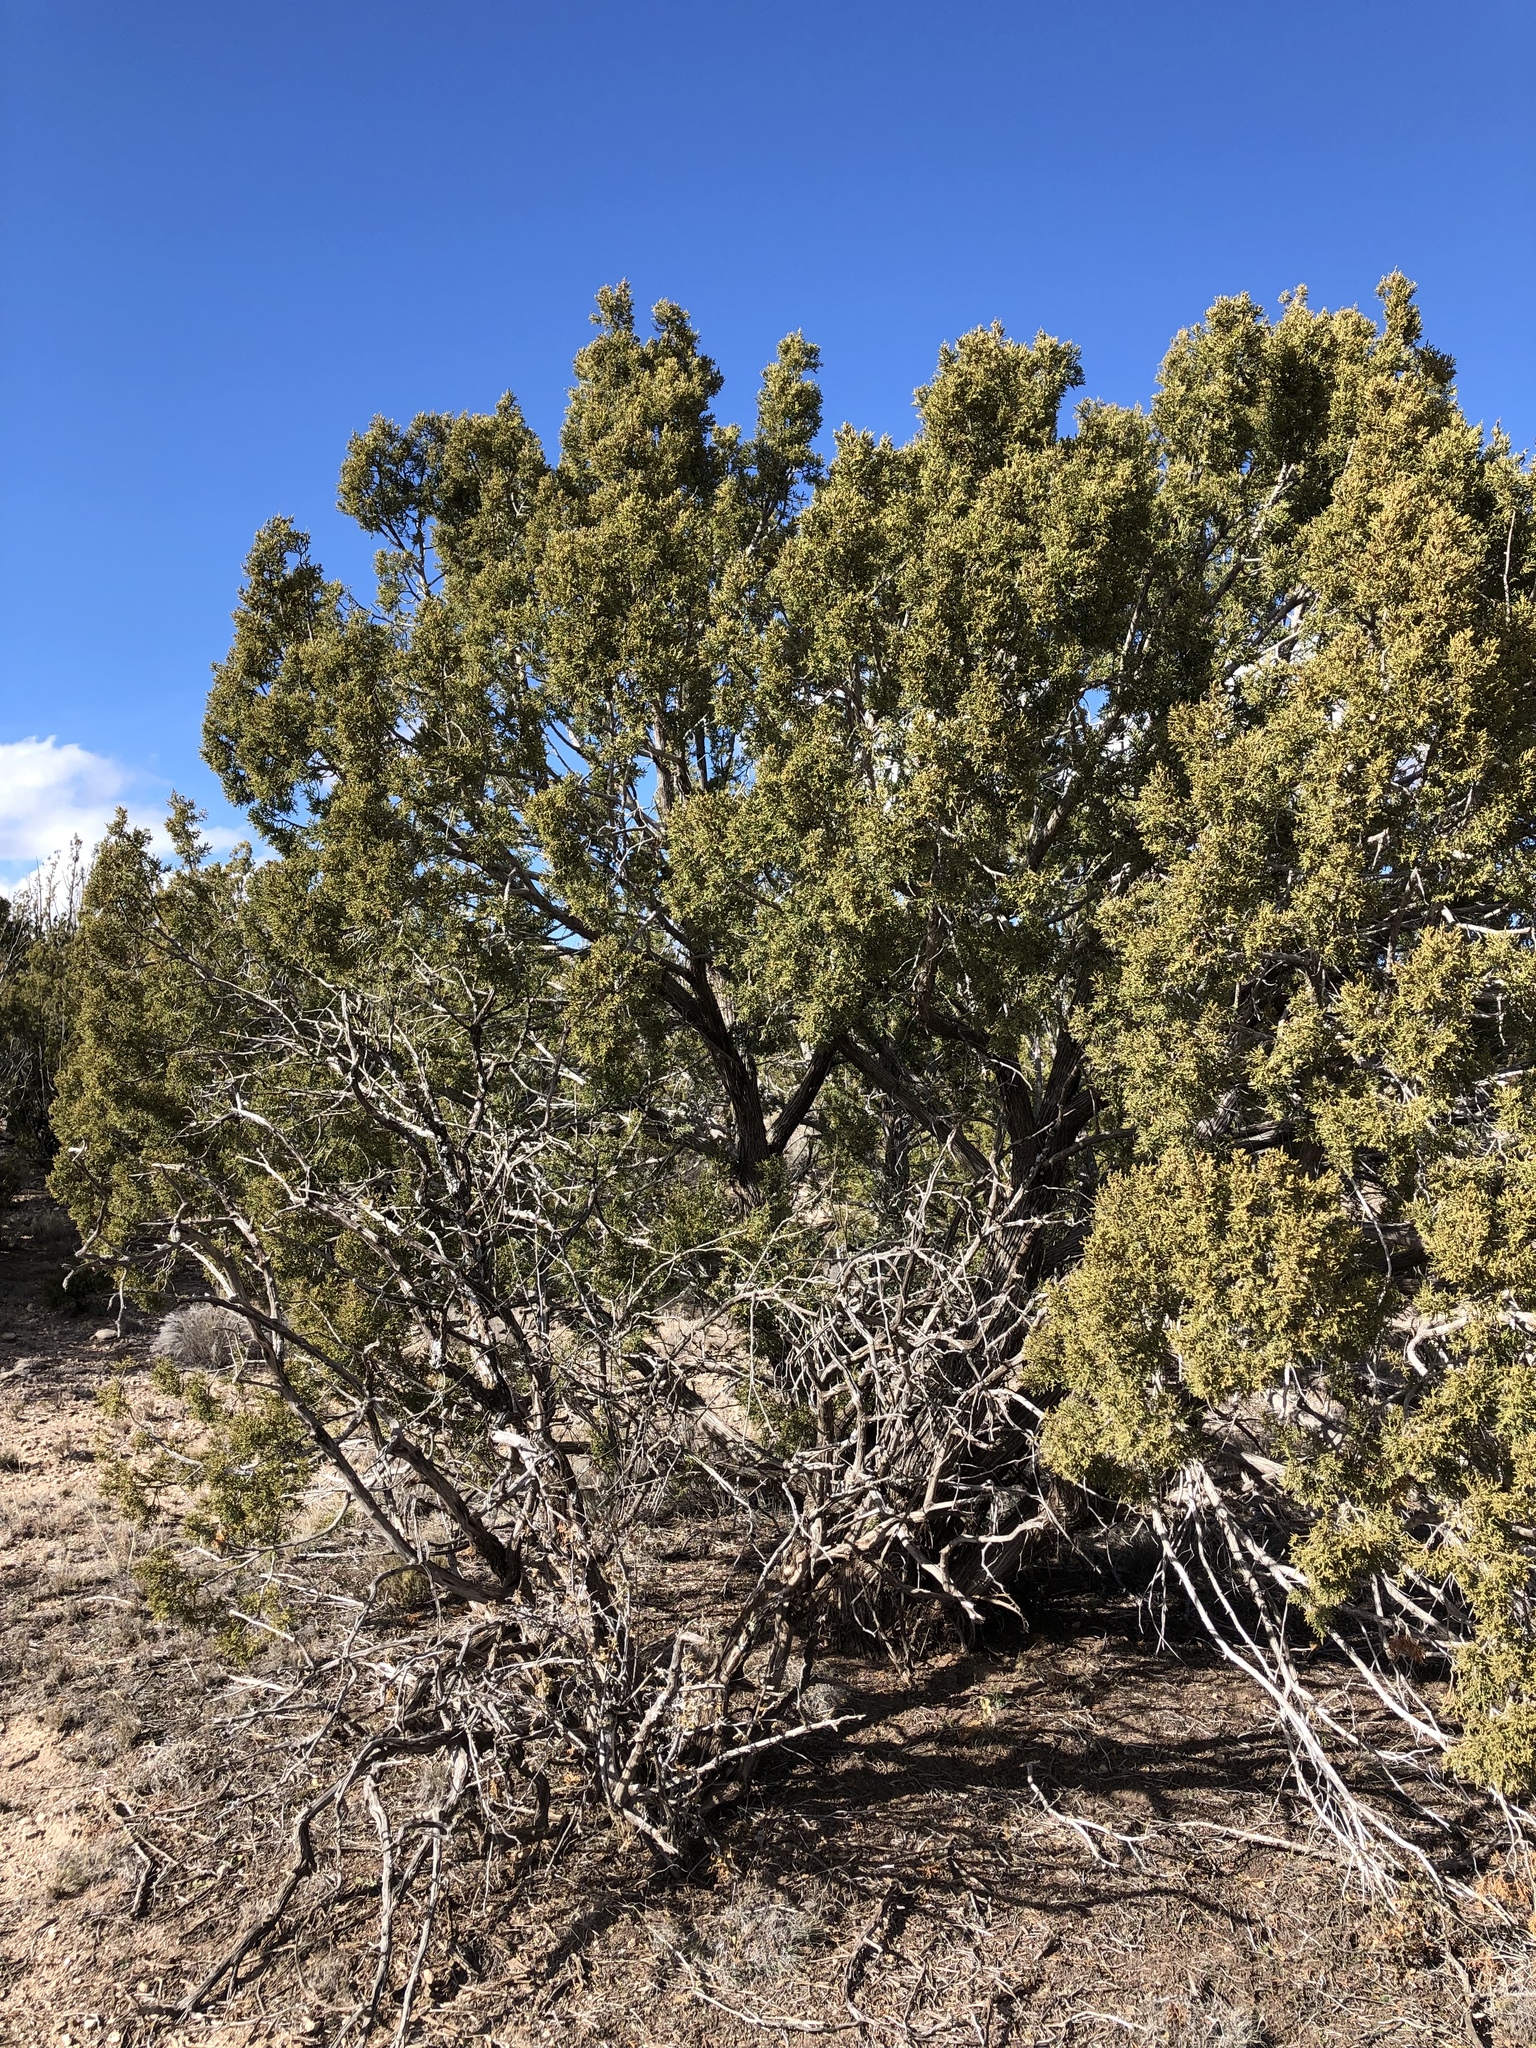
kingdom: Plantae
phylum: Tracheophyta
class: Pinopsida
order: Pinales
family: Cupressaceae
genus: Juniperus
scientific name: Juniperus monosperma
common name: One-seed juniper
